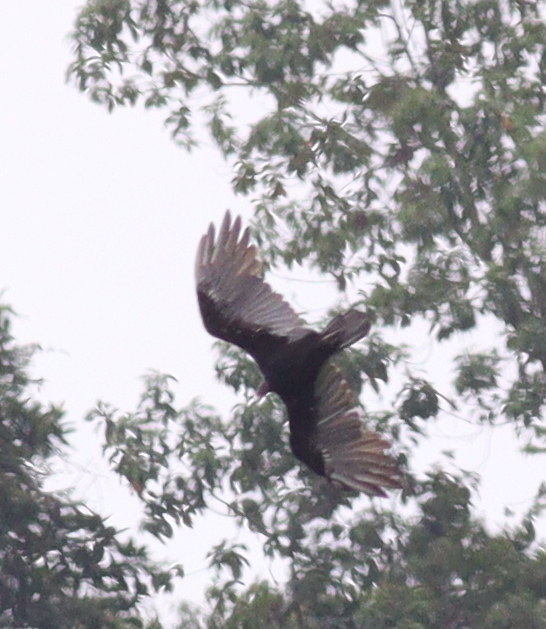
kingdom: Animalia
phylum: Chordata
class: Aves
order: Accipitriformes
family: Cathartidae
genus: Cathartes
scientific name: Cathartes aura
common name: Turkey vulture
